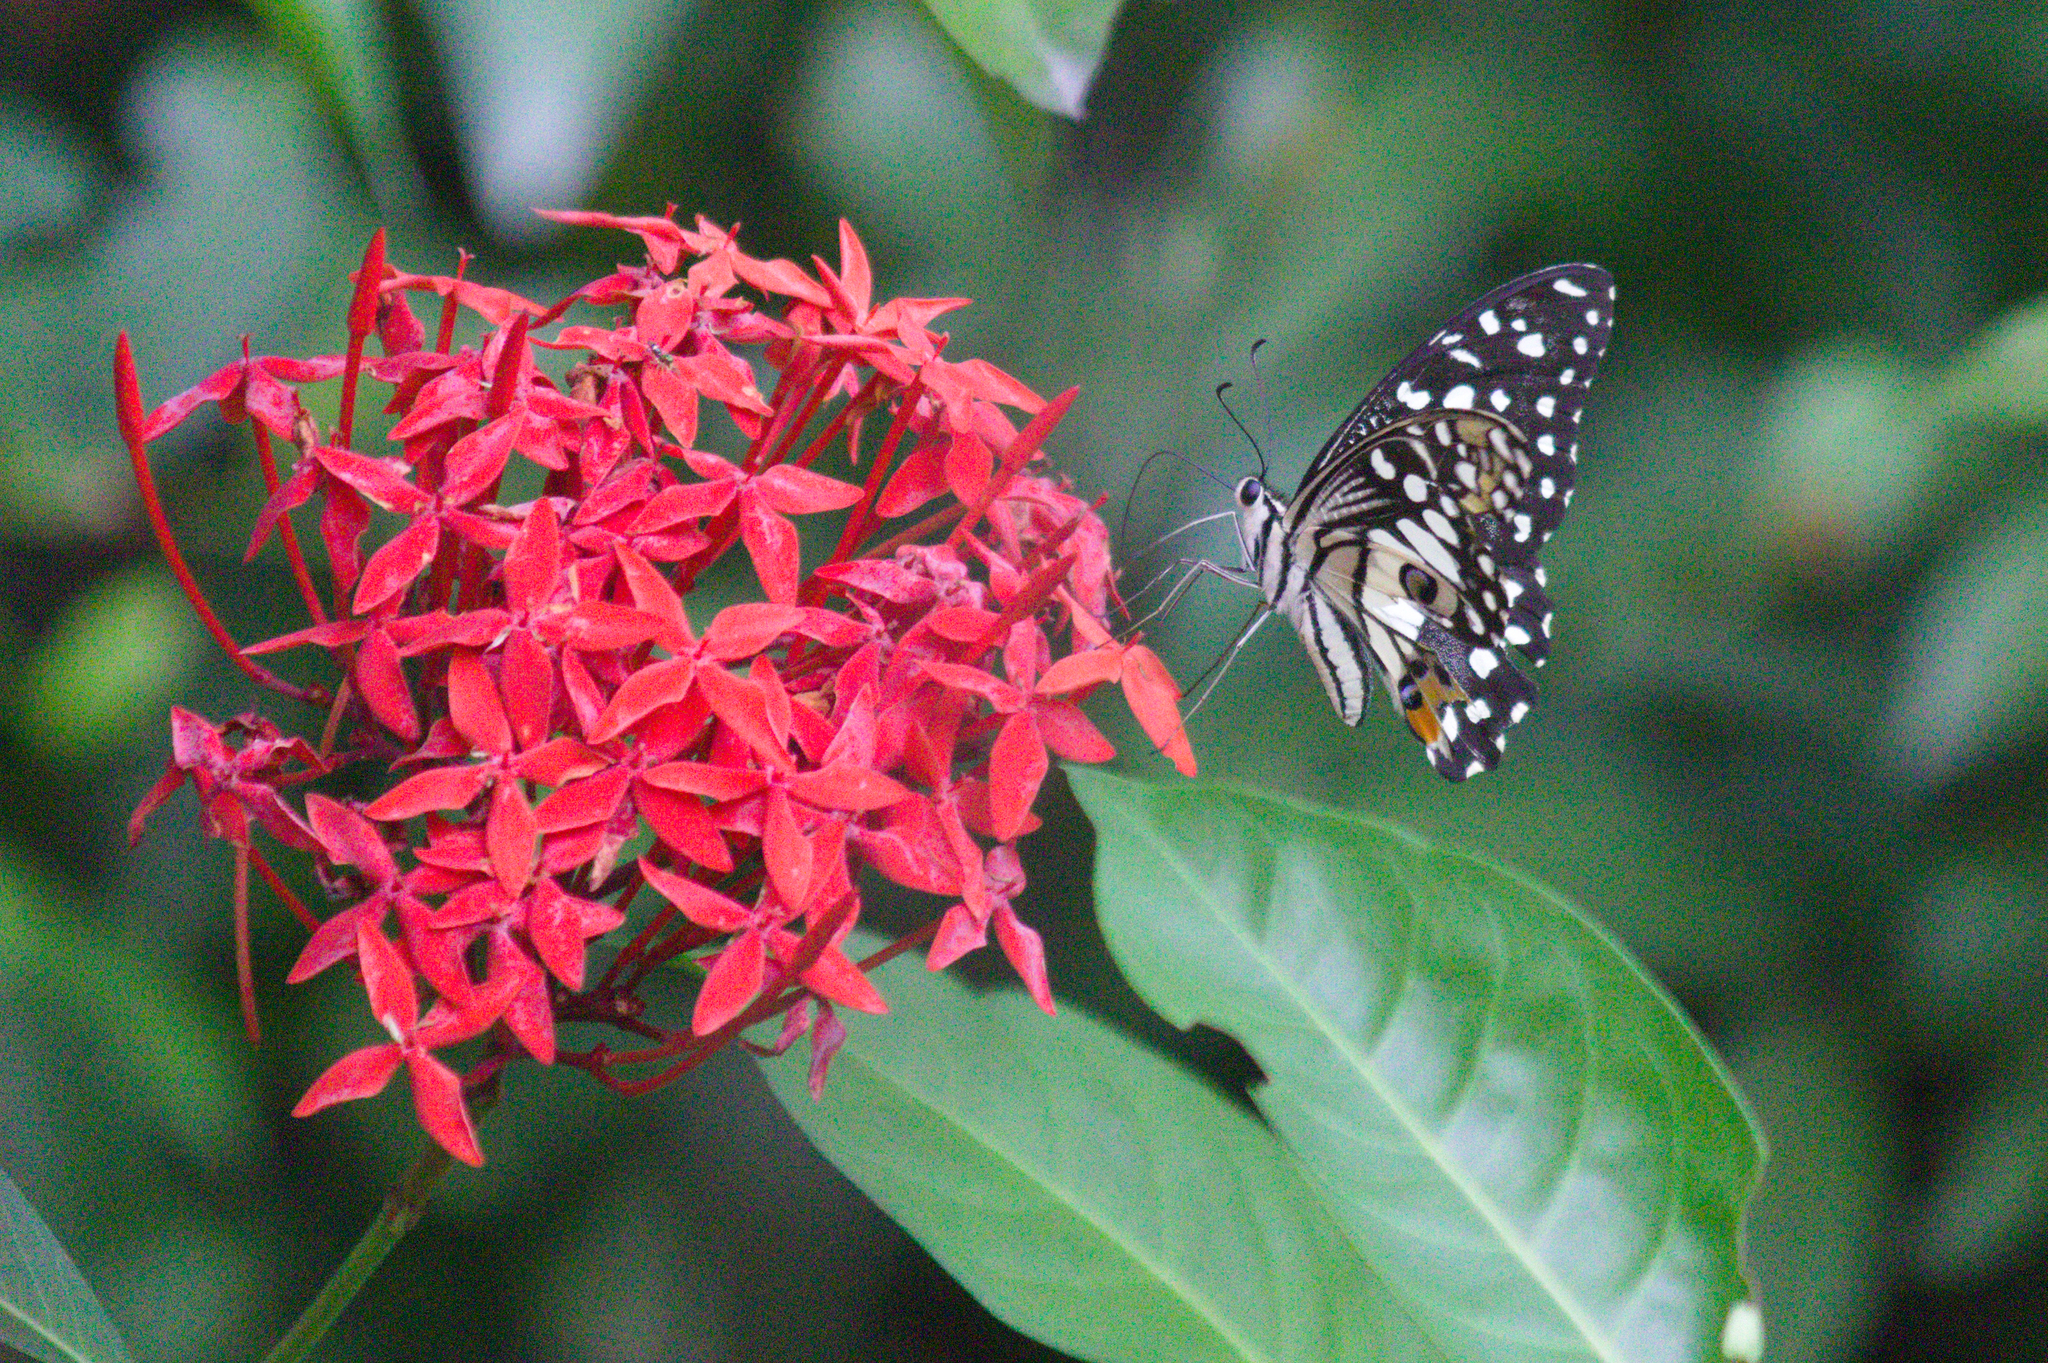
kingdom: Animalia
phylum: Arthropoda
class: Insecta
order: Lepidoptera
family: Papilionidae
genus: Papilio
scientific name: Papilio demoleus
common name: Lime butterfly
